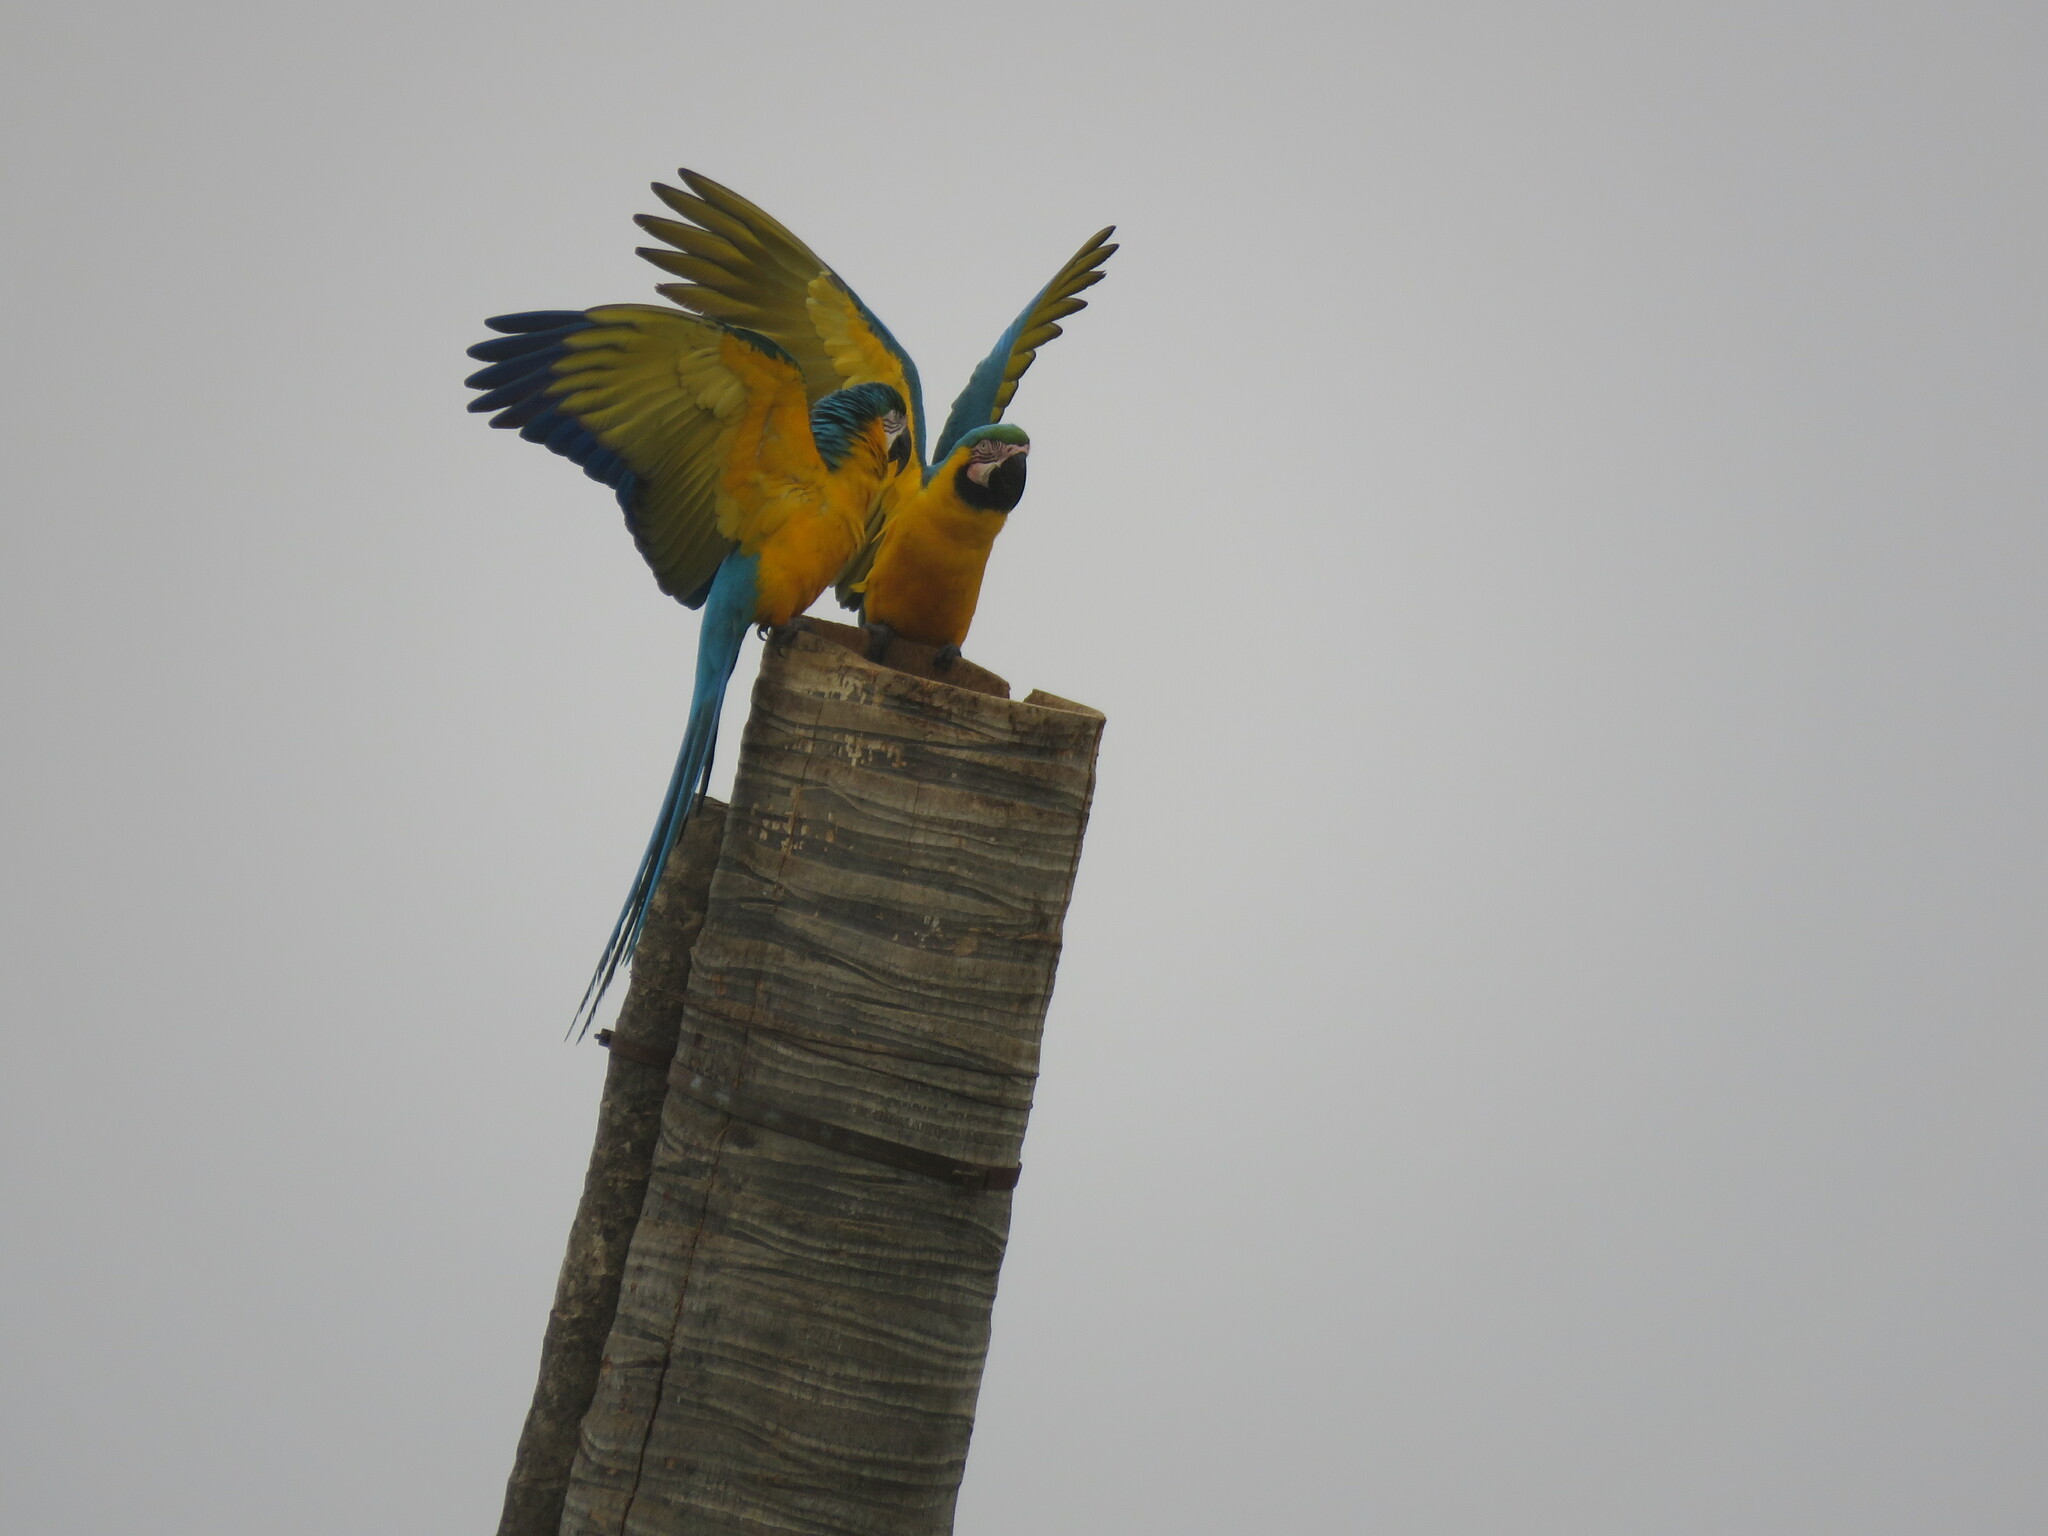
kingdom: Animalia
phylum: Chordata
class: Aves
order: Psittaciformes
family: Psittacidae
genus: Ara
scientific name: Ara ararauna
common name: Blue-and-yellow macaw
